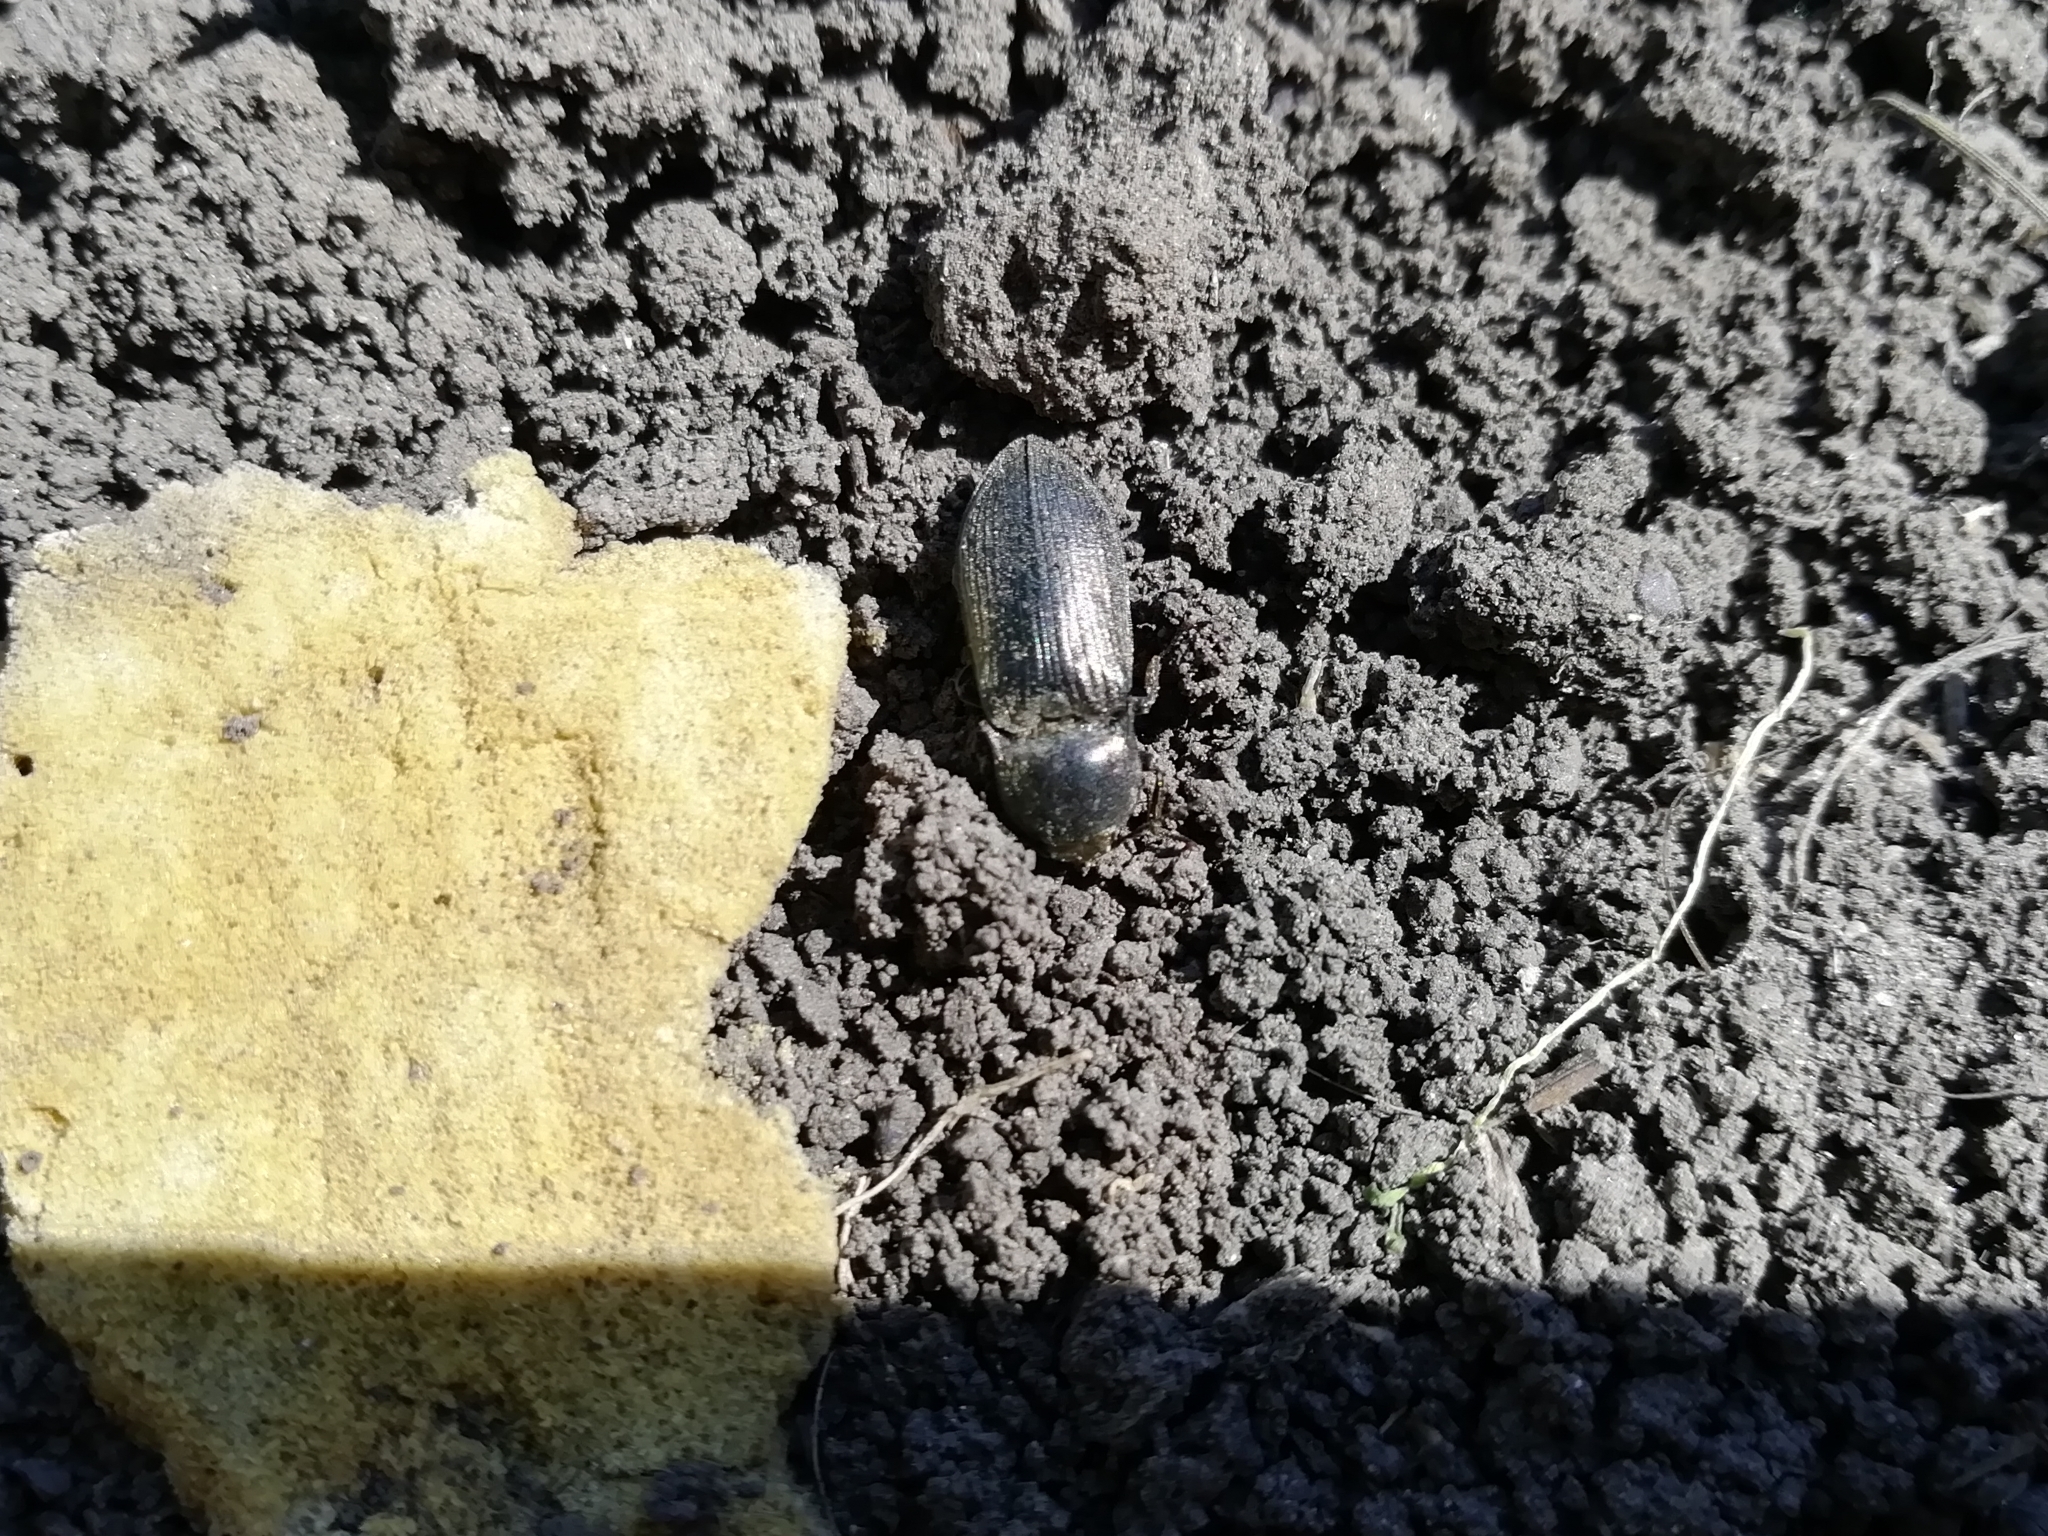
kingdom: Animalia
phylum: Arthropoda
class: Insecta
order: Coleoptera
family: Elateridae
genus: Selatosomus
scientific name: Selatosomus latus
